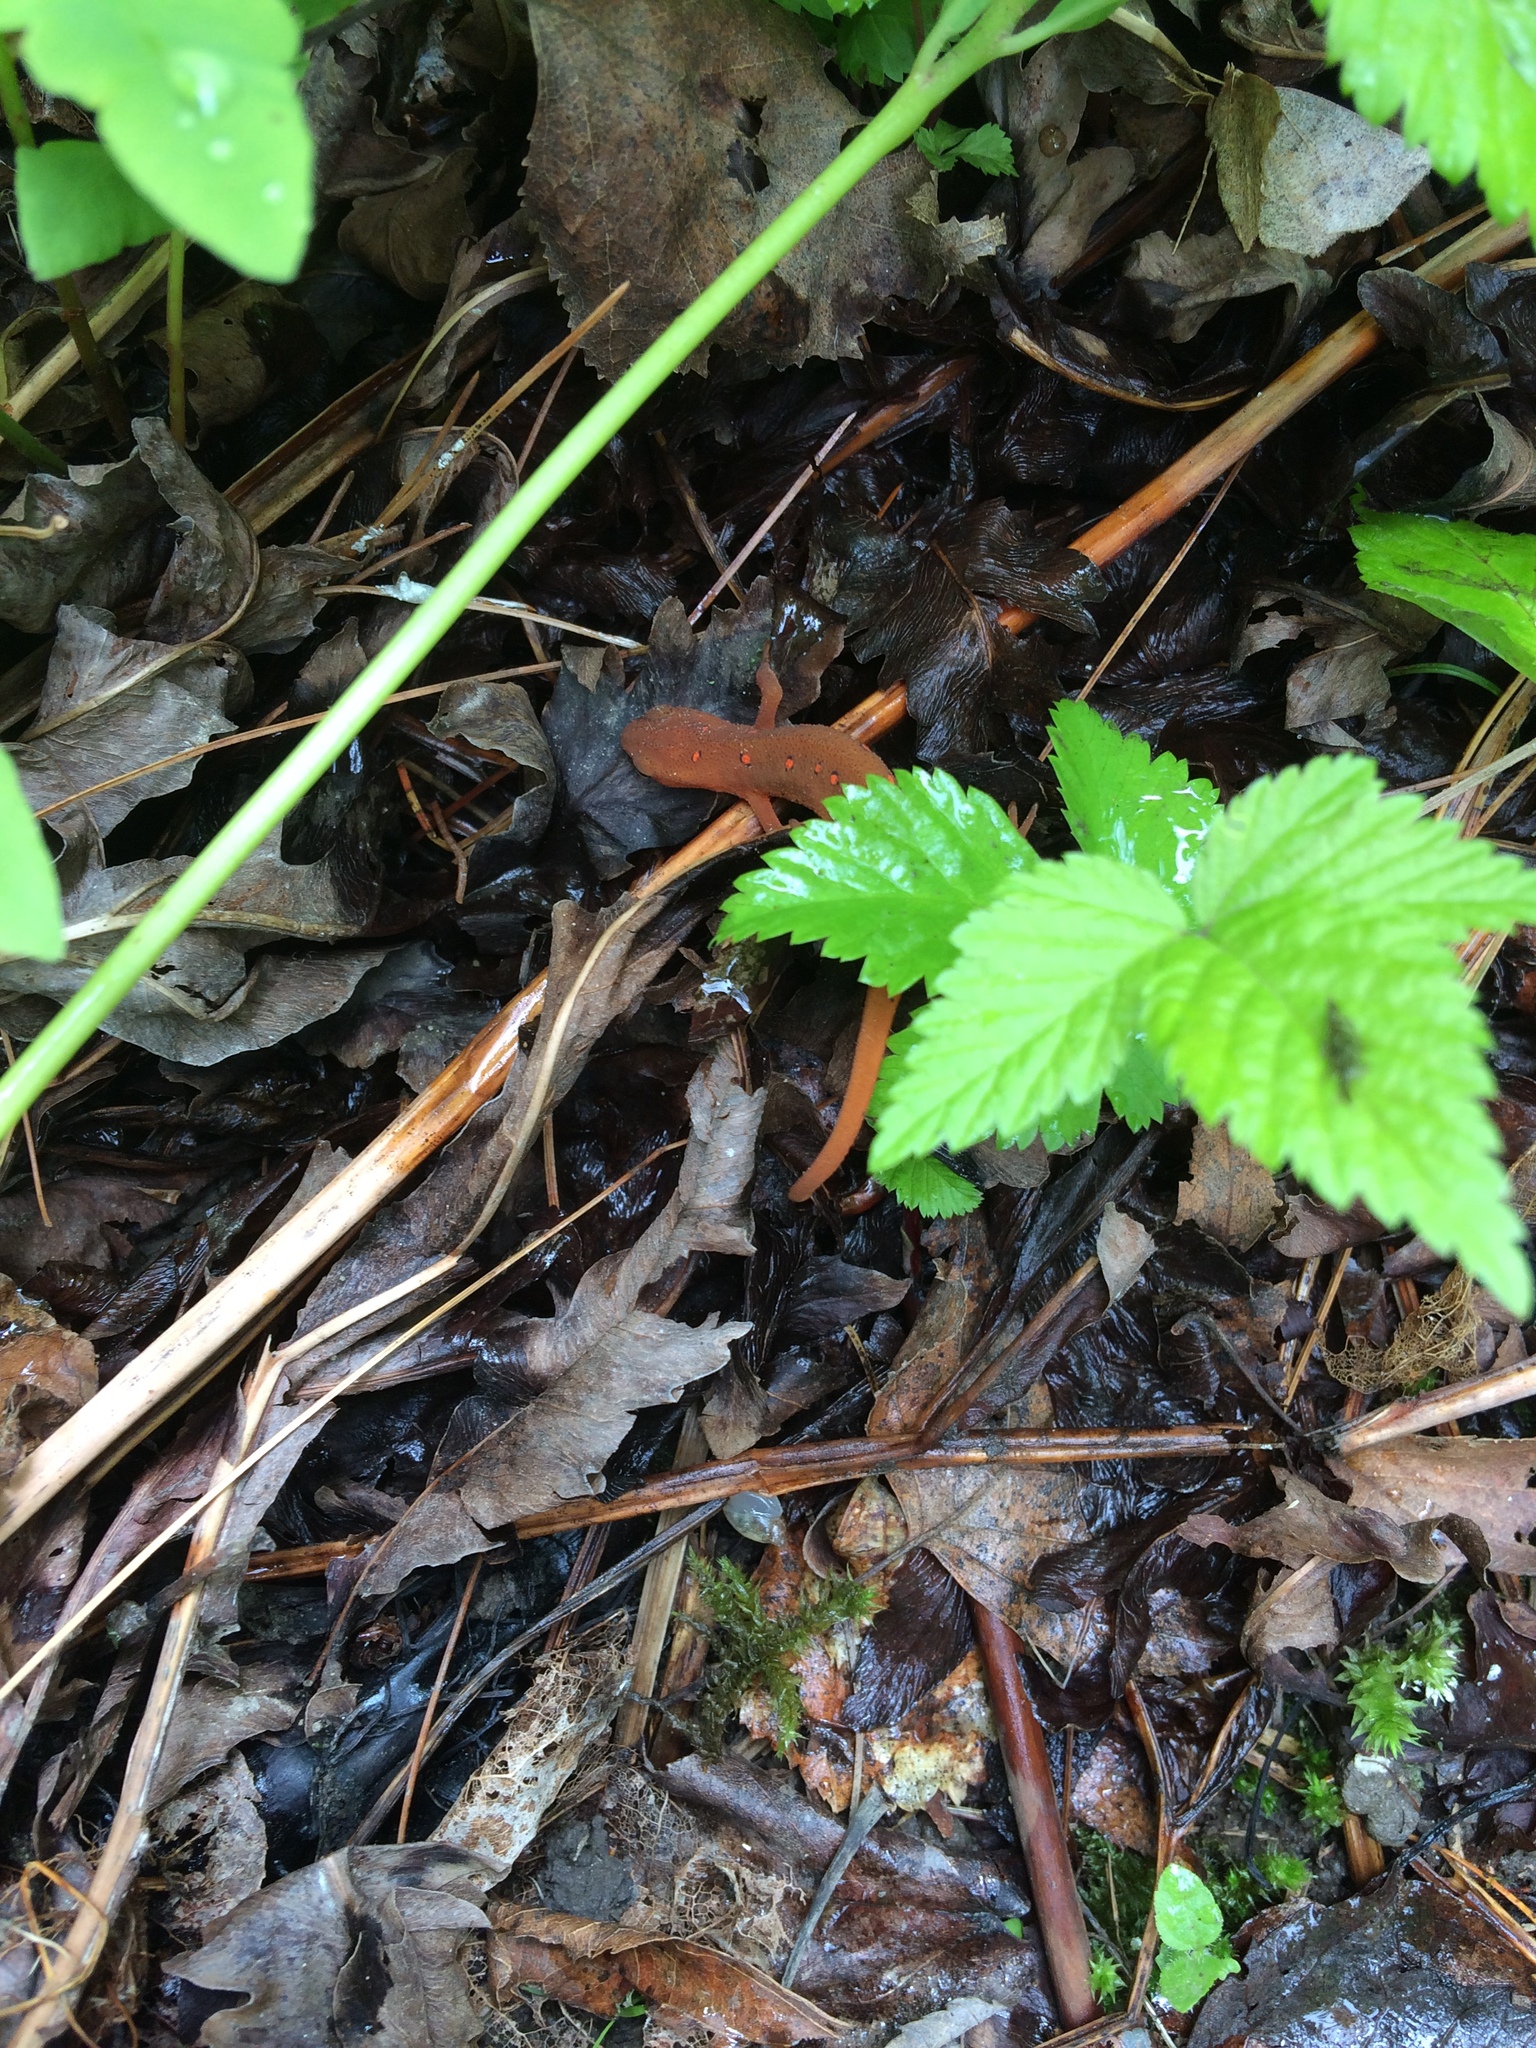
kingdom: Animalia
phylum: Chordata
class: Amphibia
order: Caudata
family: Salamandridae
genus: Notophthalmus
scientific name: Notophthalmus viridescens
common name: Eastern newt
